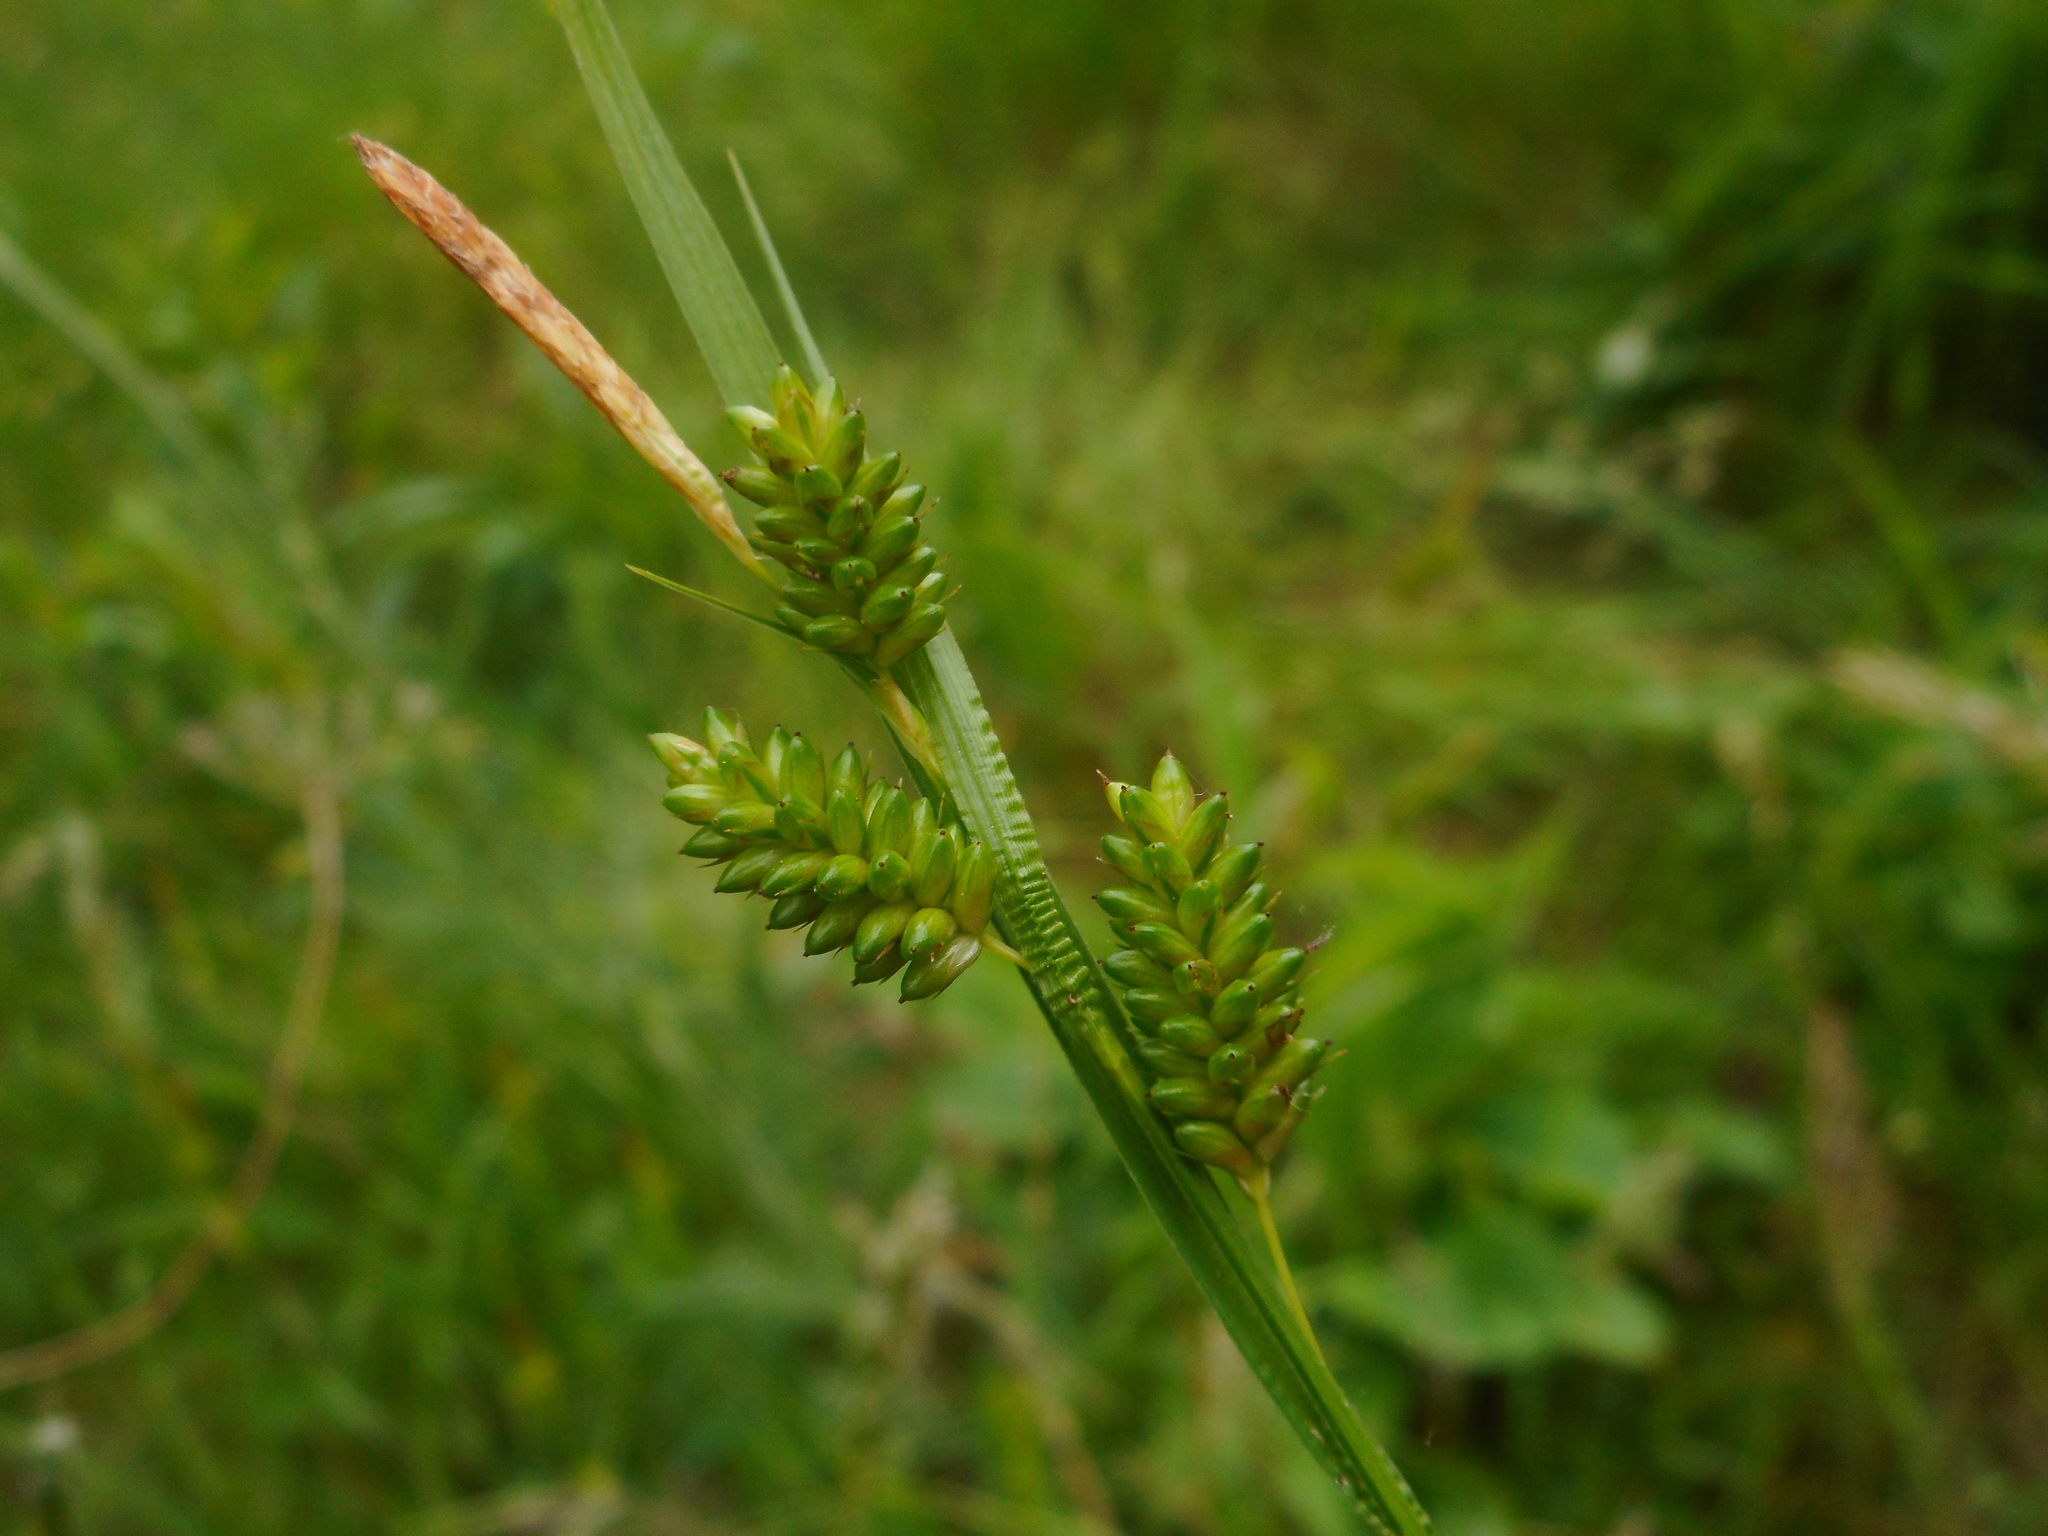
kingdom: Plantae
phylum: Tracheophyta
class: Liliopsida
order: Poales
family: Cyperaceae
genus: Carex
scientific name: Carex pallescens
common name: Pale sedge
